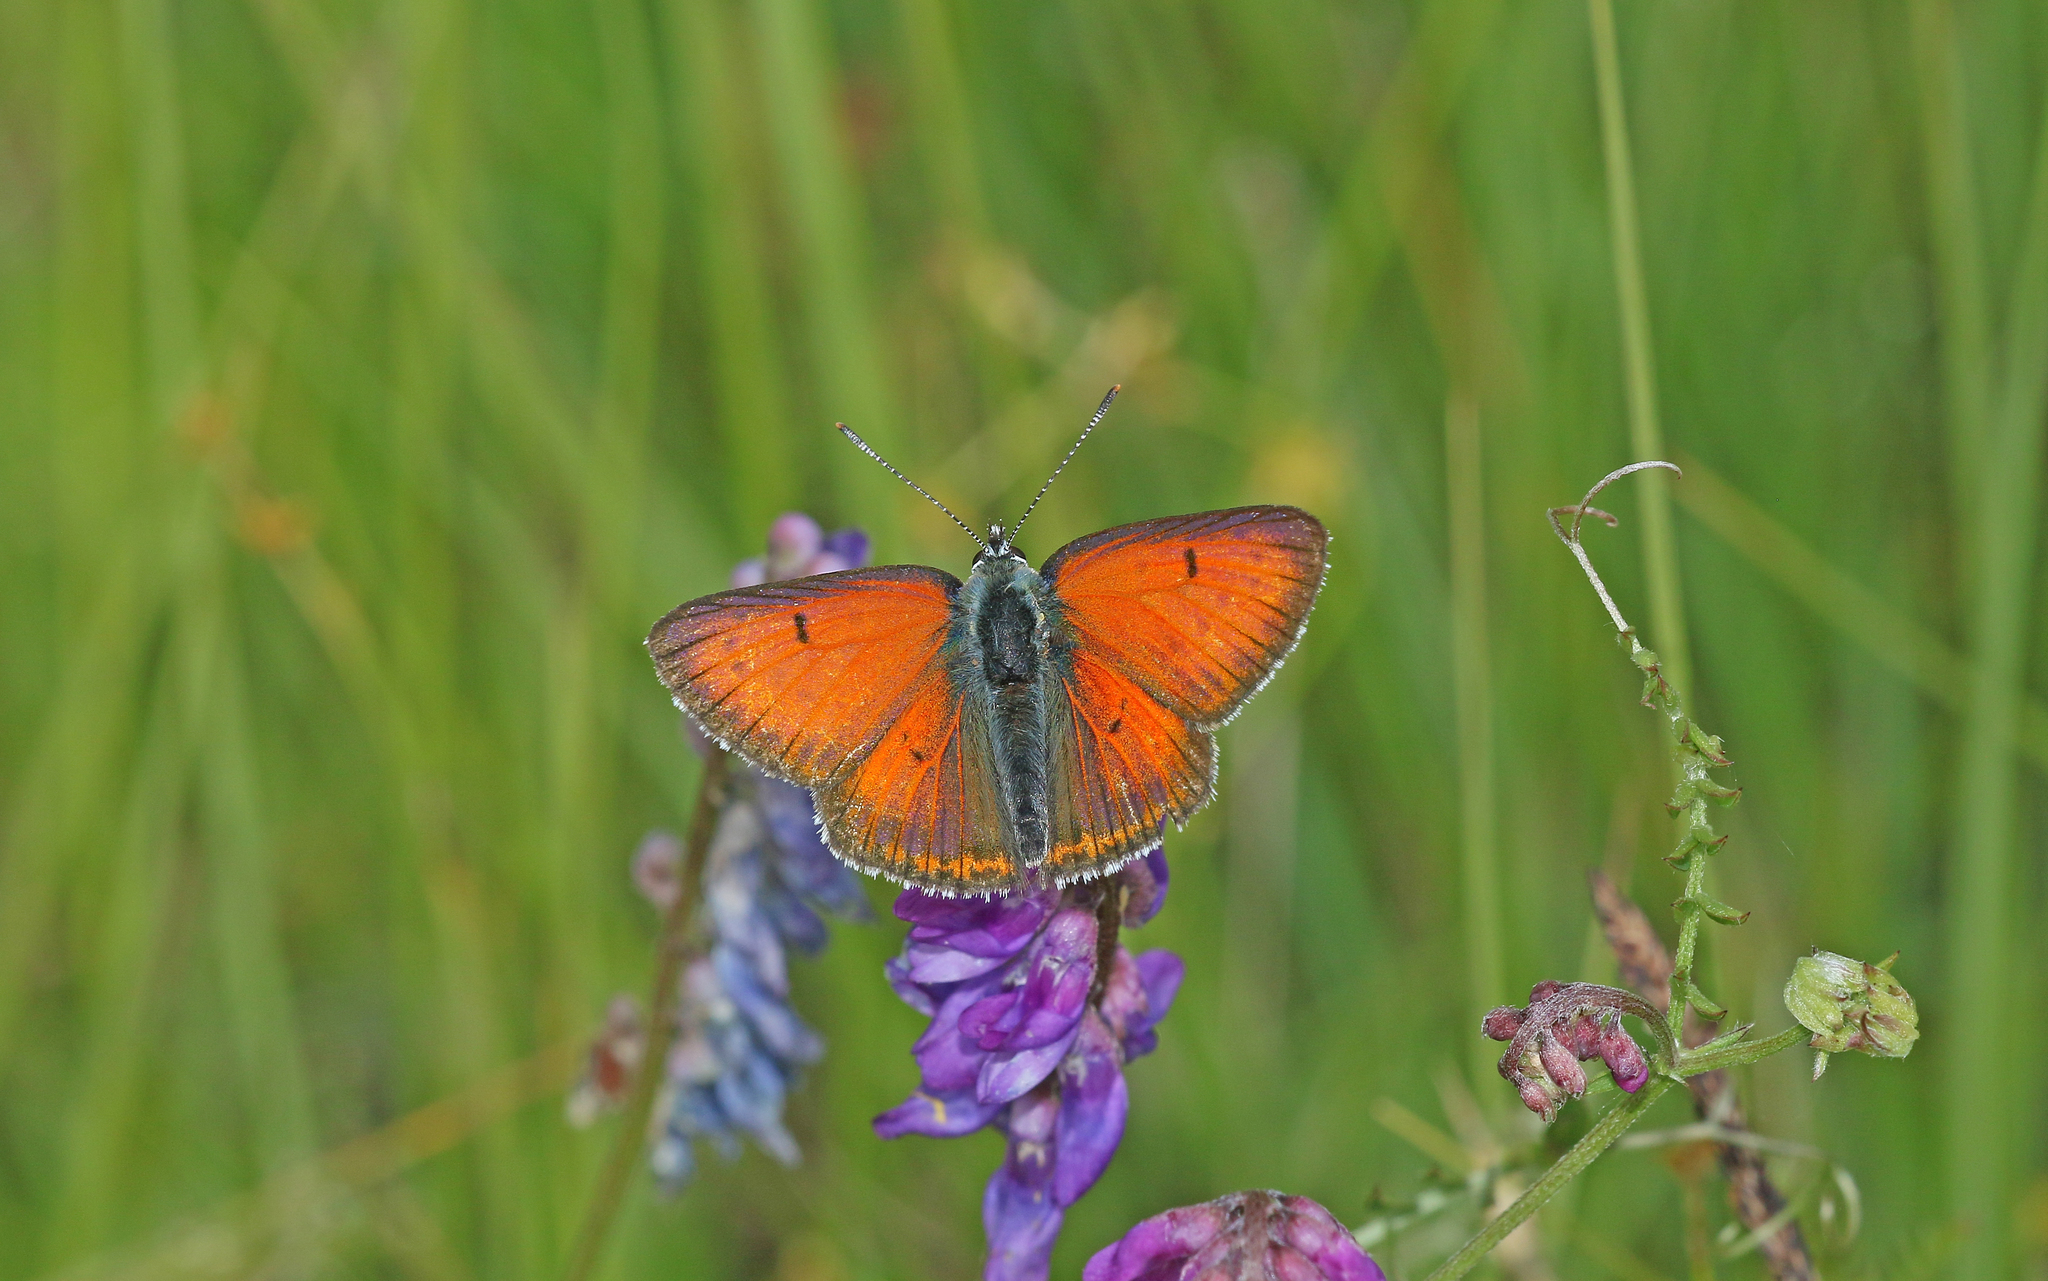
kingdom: Animalia
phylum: Arthropoda
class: Insecta
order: Lepidoptera
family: Lycaenidae
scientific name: Lycaenidae
